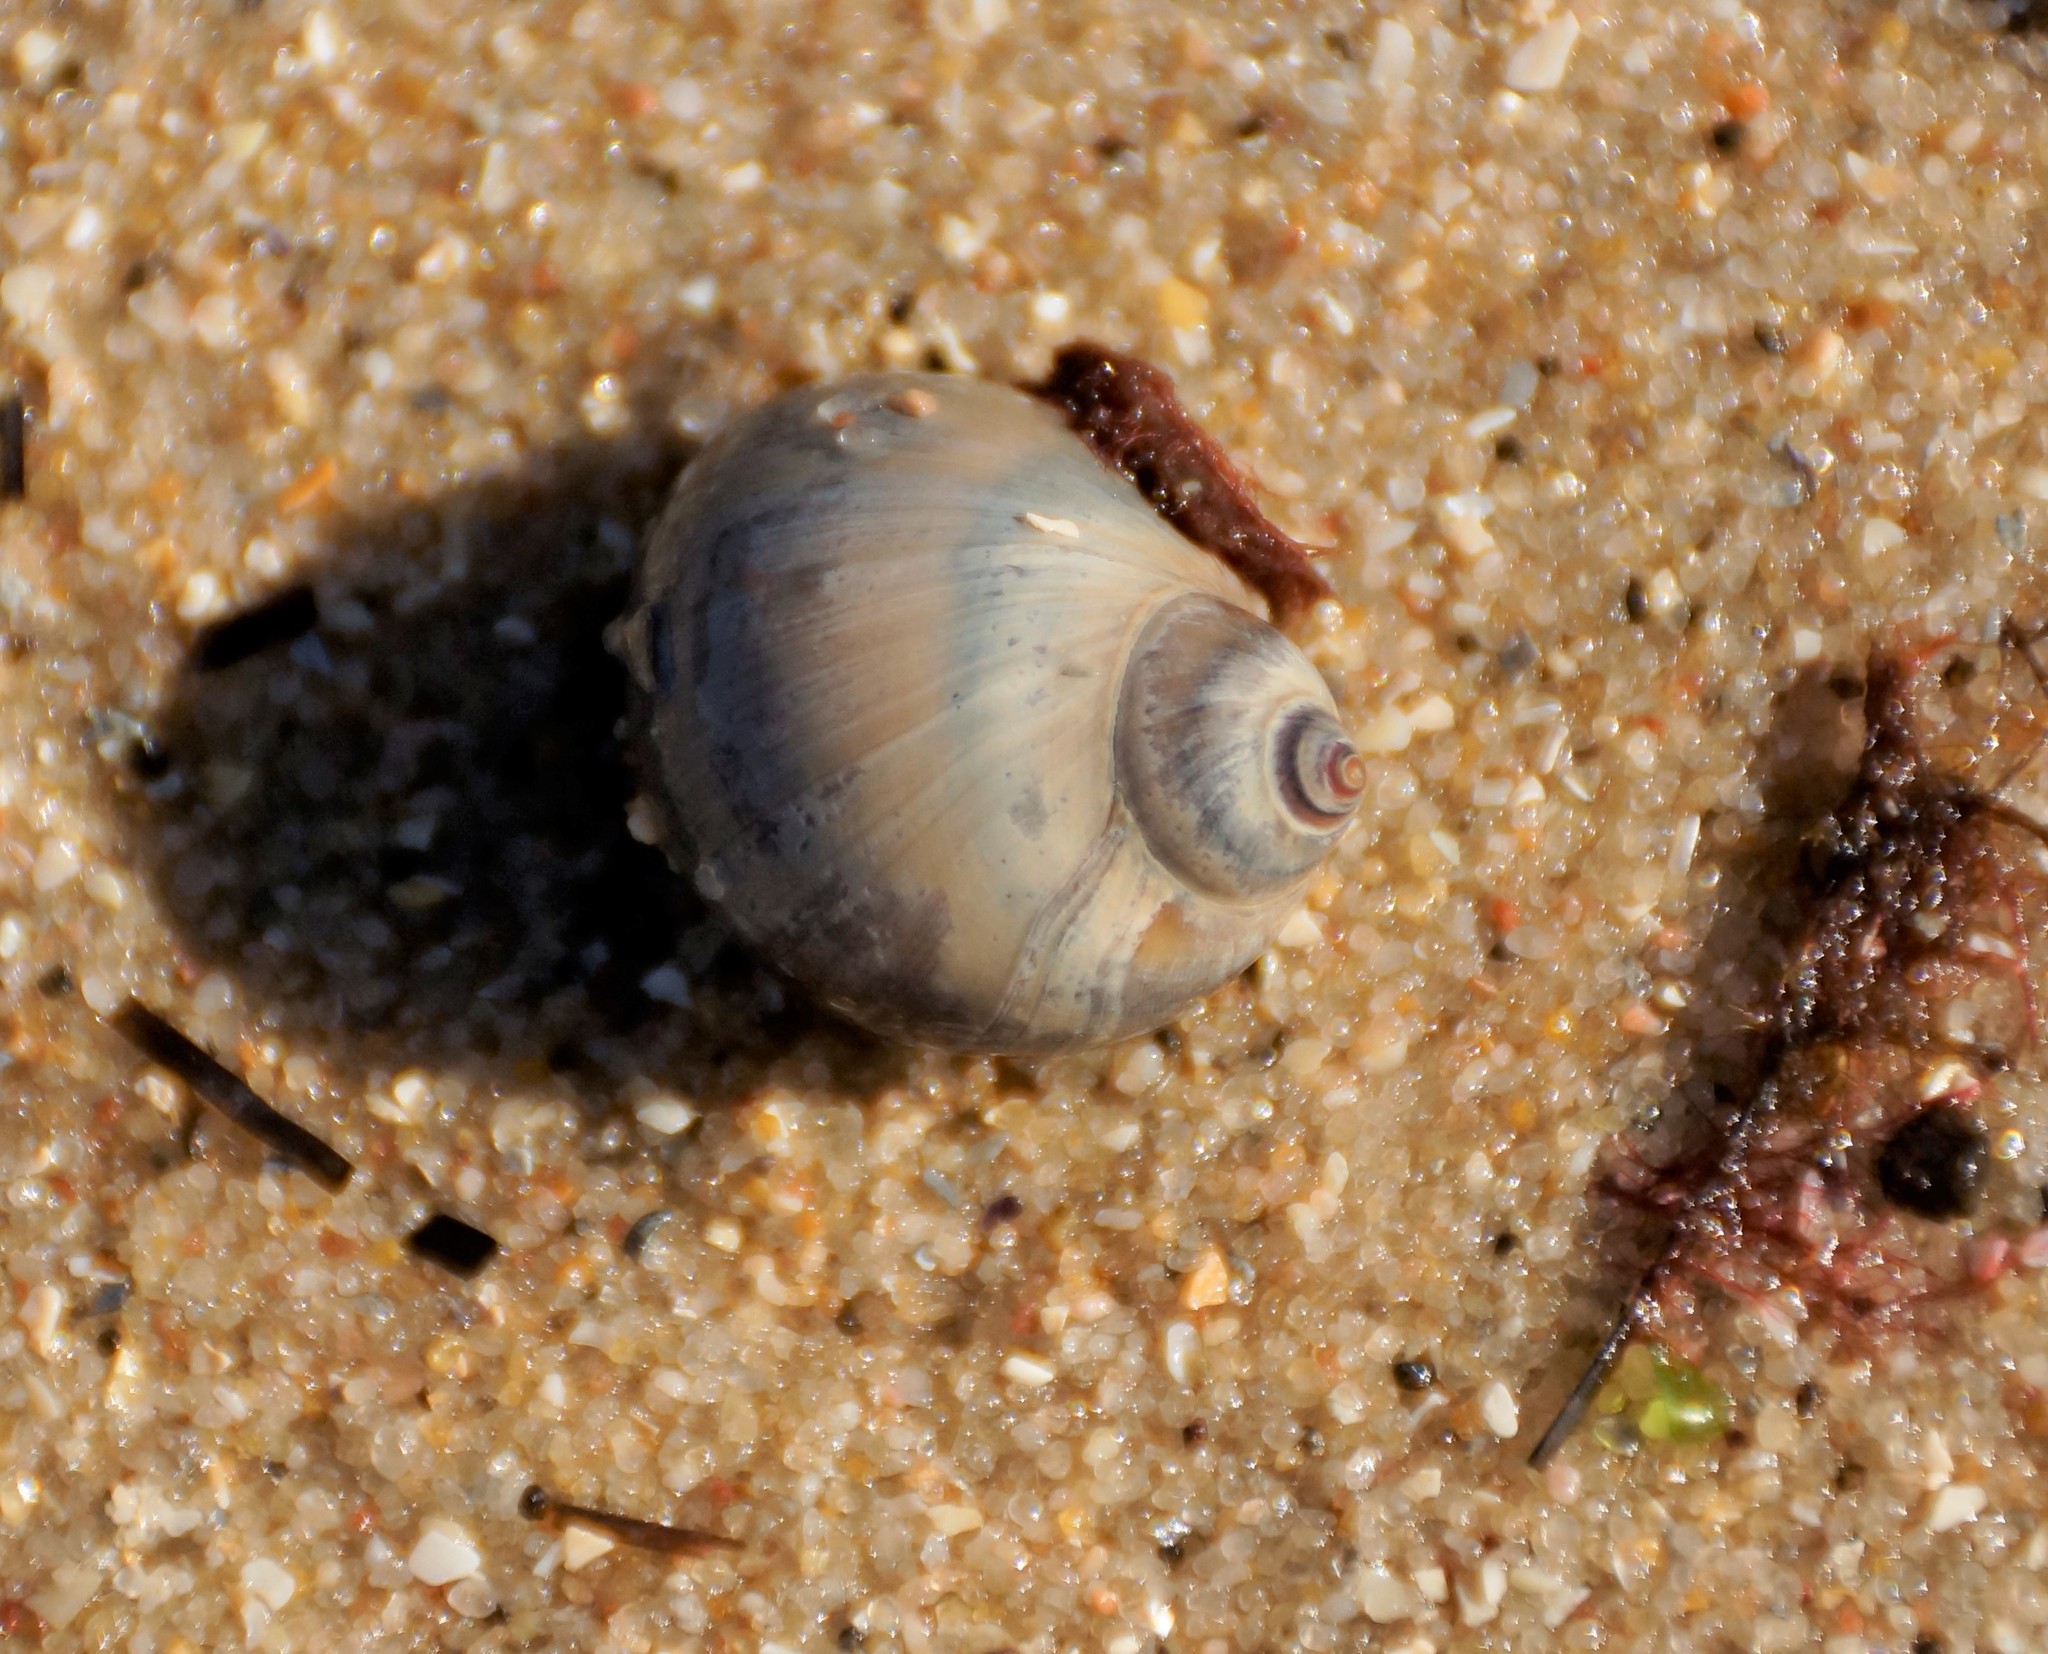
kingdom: Animalia
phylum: Mollusca
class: Gastropoda
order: Littorinimorpha
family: Naticidae
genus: Conuber
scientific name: Conuber conicum
